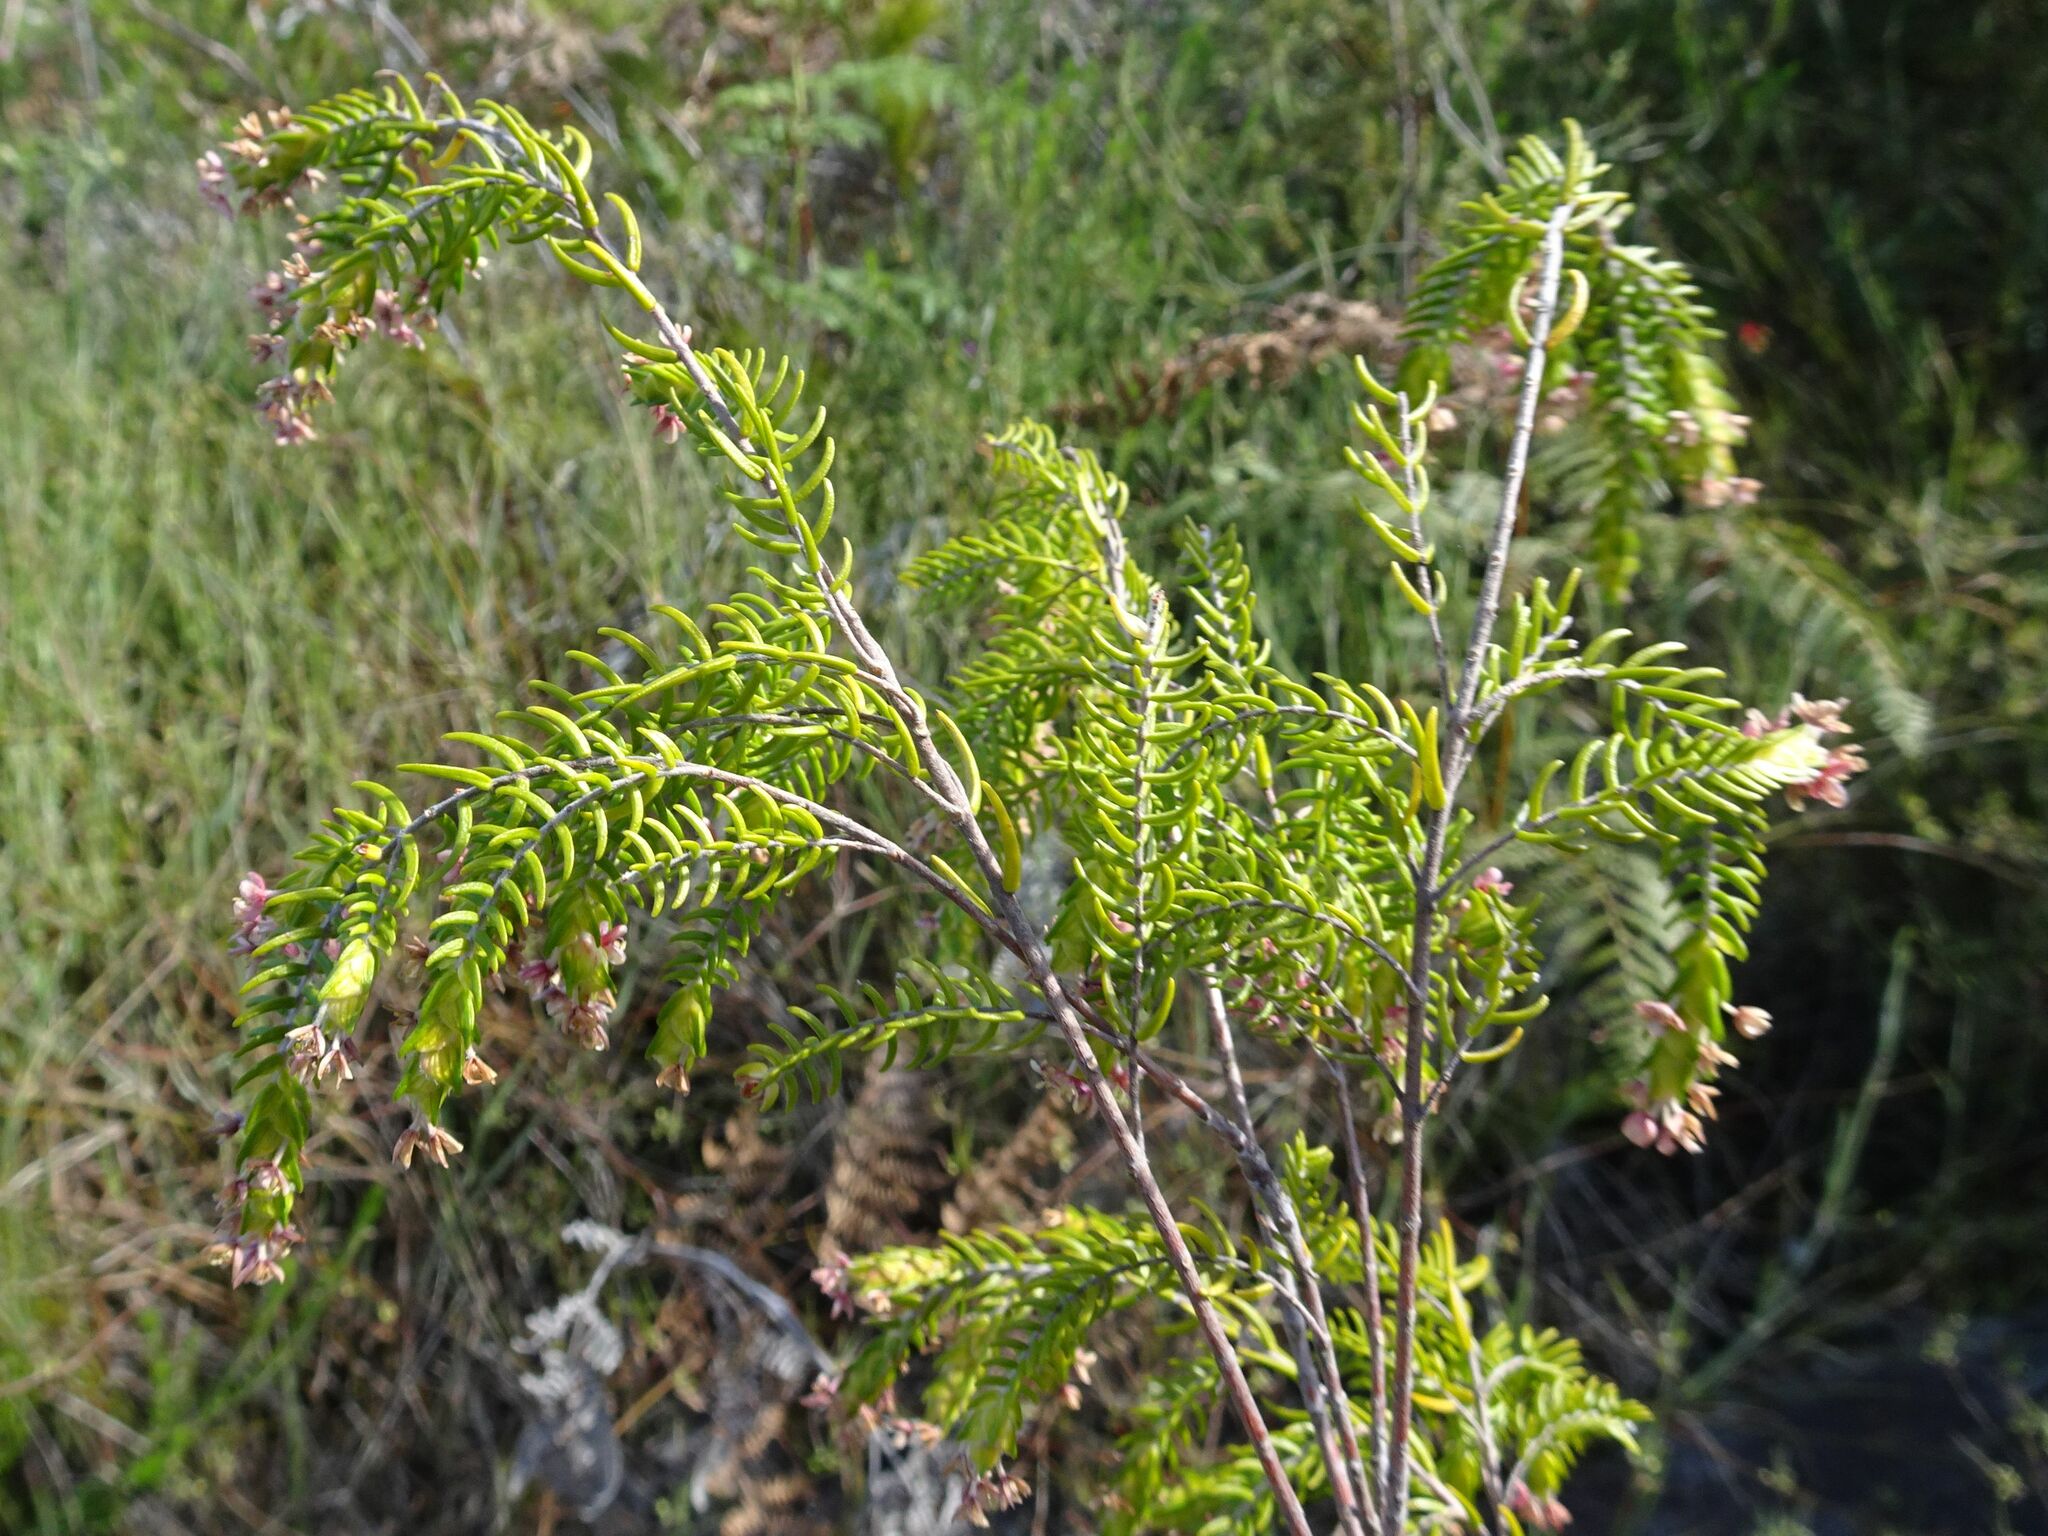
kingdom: Plantae
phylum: Tracheophyta
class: Magnoliopsida
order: Malvales
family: Thymelaeaceae
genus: Passerina
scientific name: Passerina falcifolia
